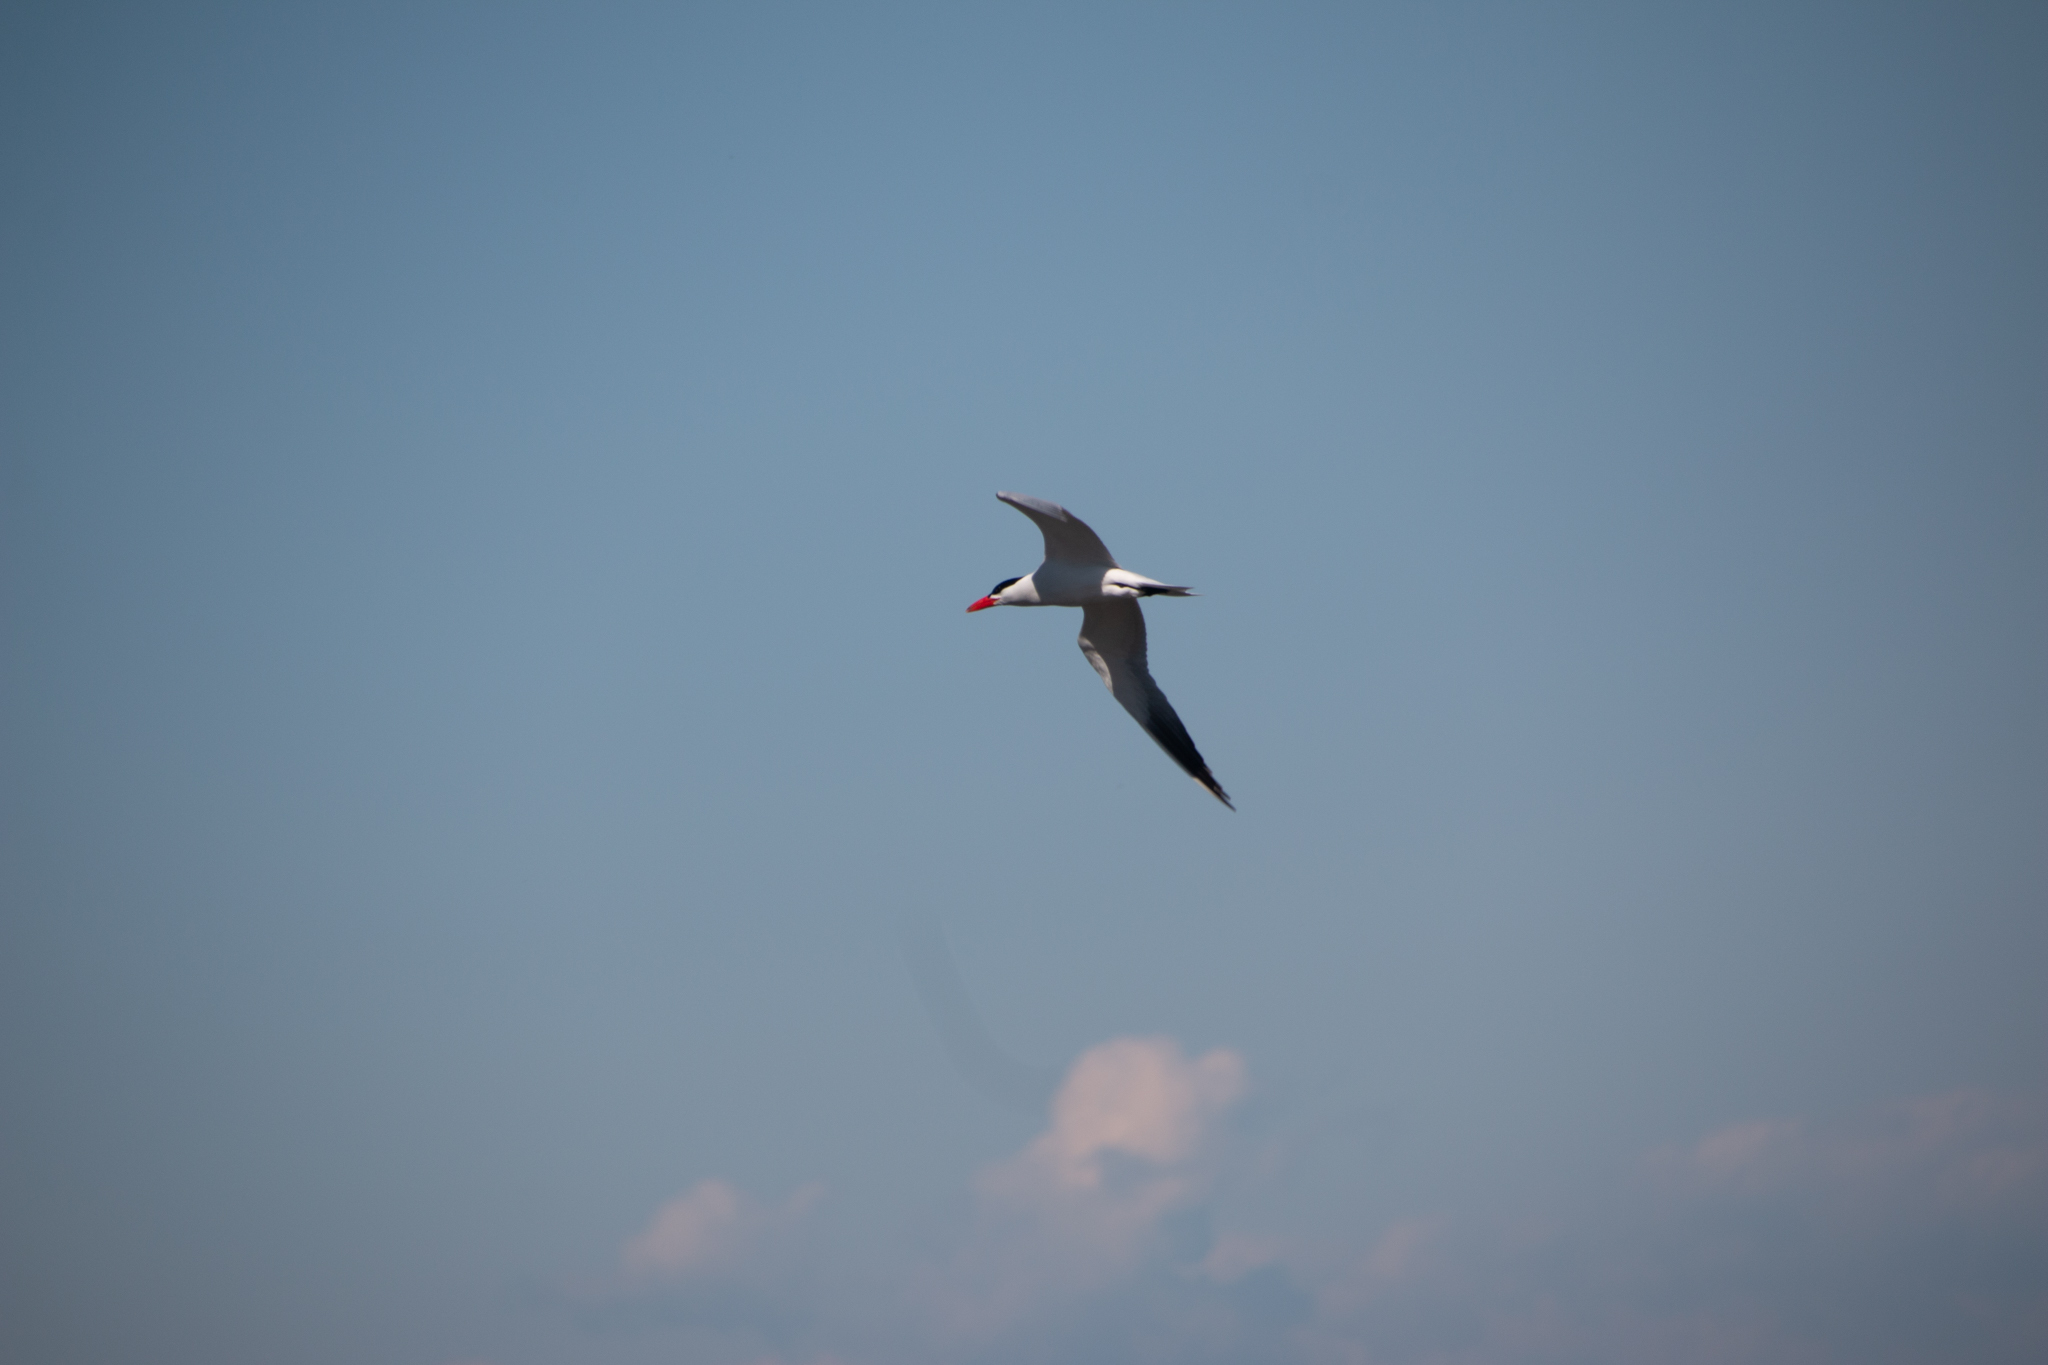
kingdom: Animalia
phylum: Chordata
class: Aves
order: Charadriiformes
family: Laridae
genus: Hydroprogne
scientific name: Hydroprogne caspia
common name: Caspian tern
